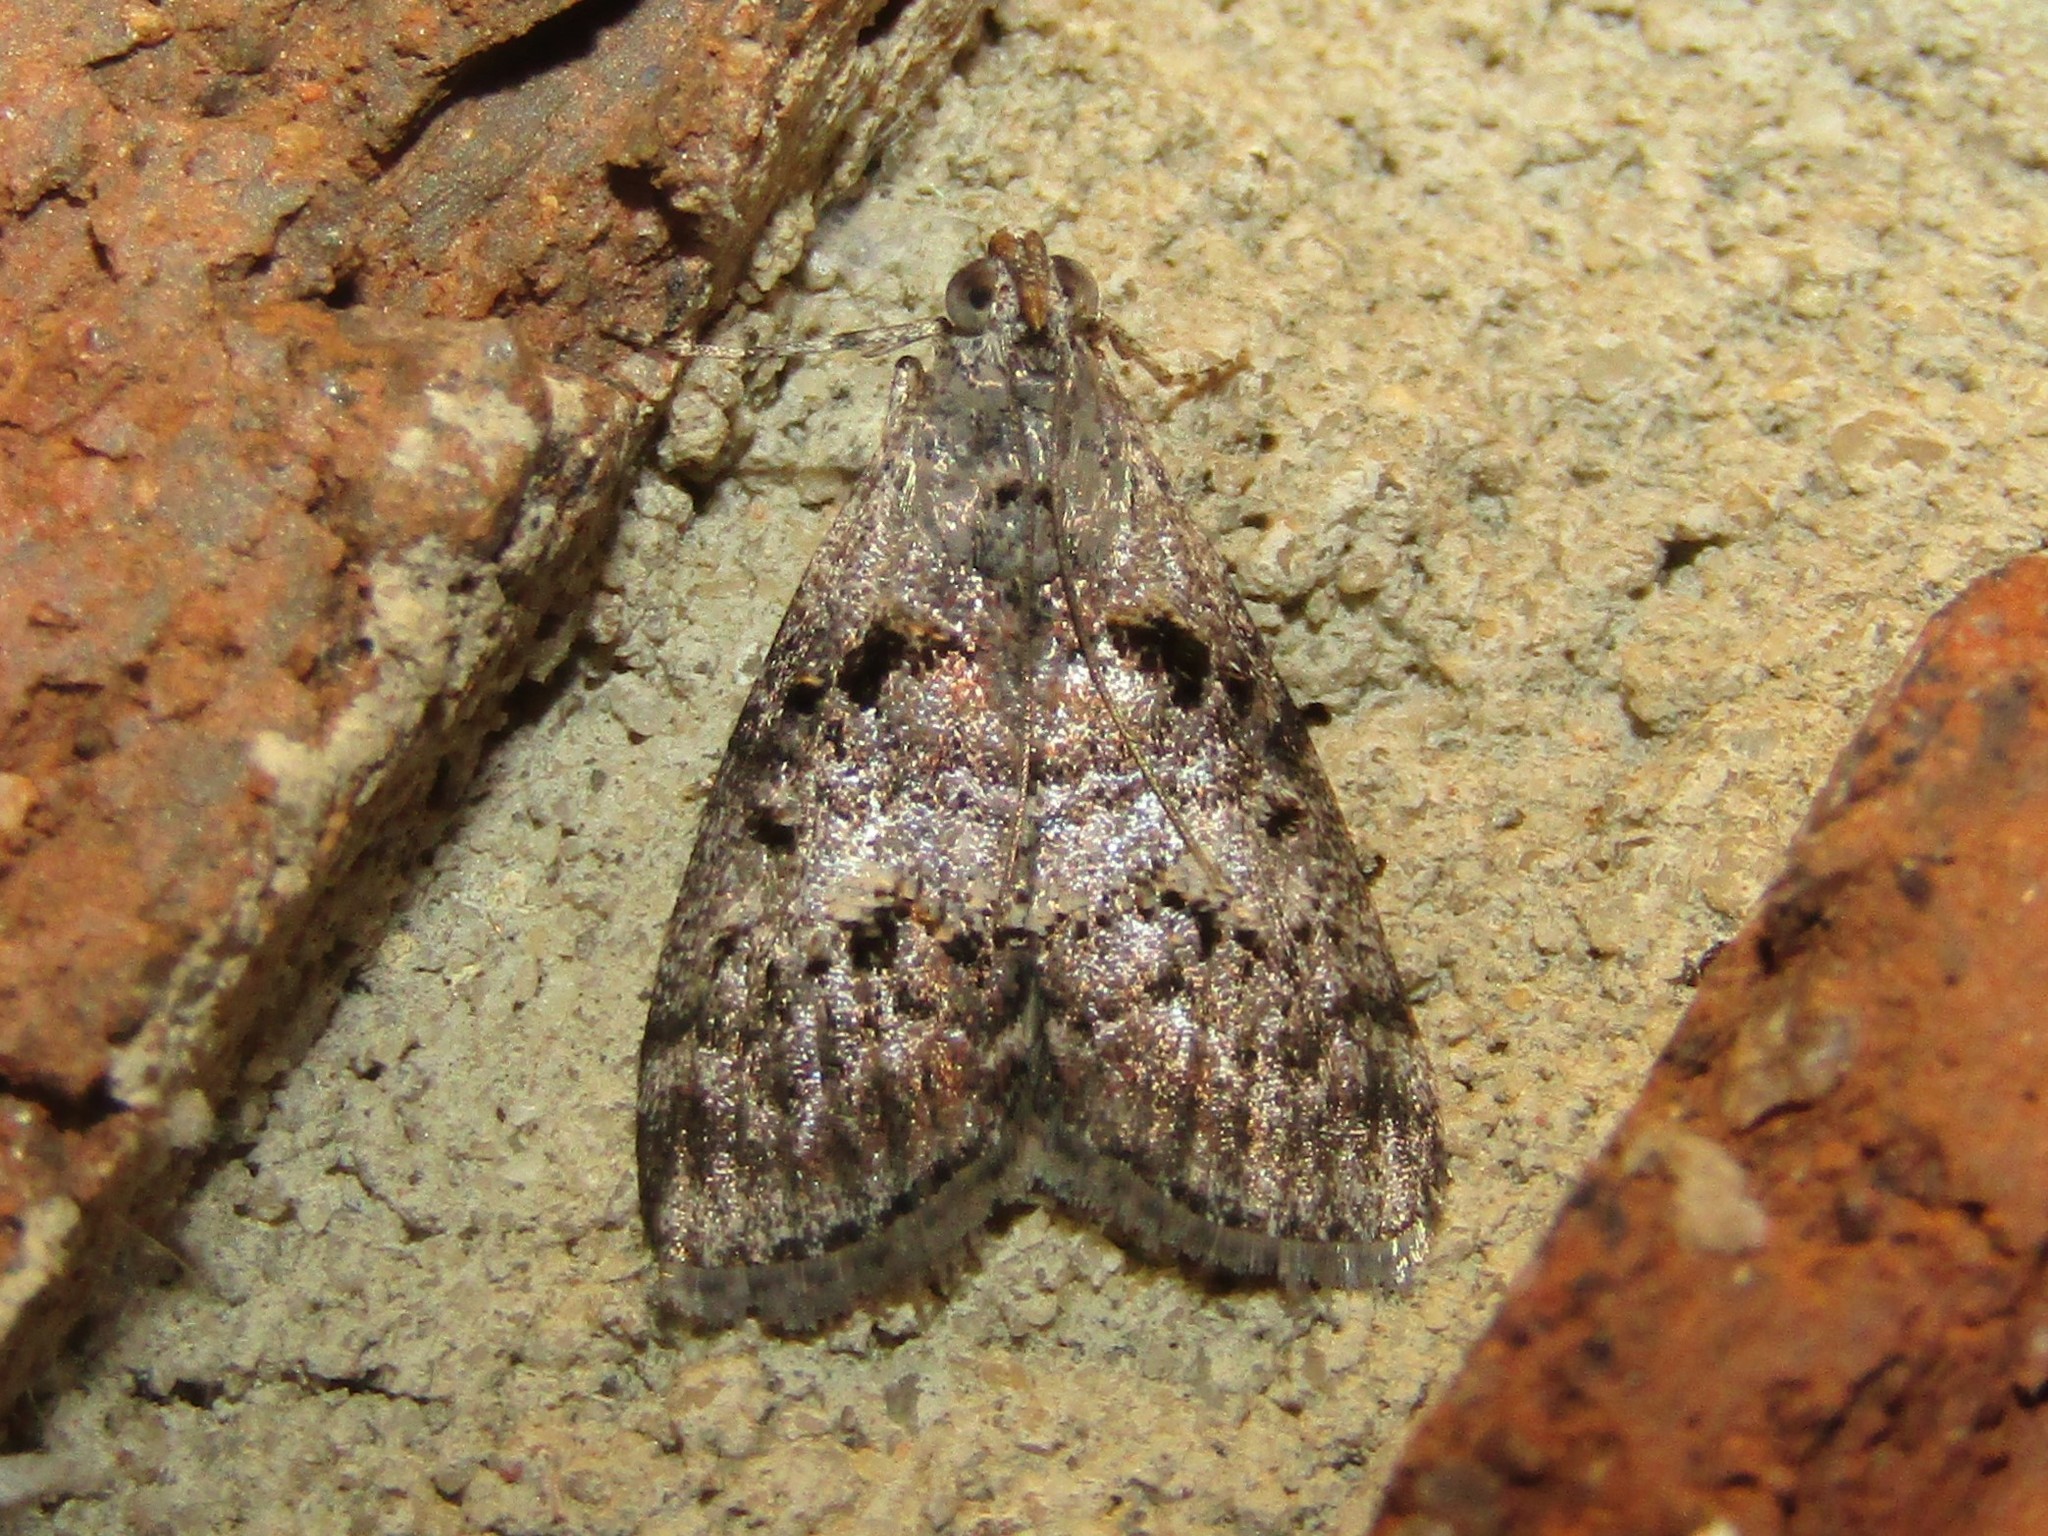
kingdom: Animalia
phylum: Arthropoda
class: Insecta
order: Lepidoptera
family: Pyralidae
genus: Pococera
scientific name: Pococera asperatella
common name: Maple webworm moth
